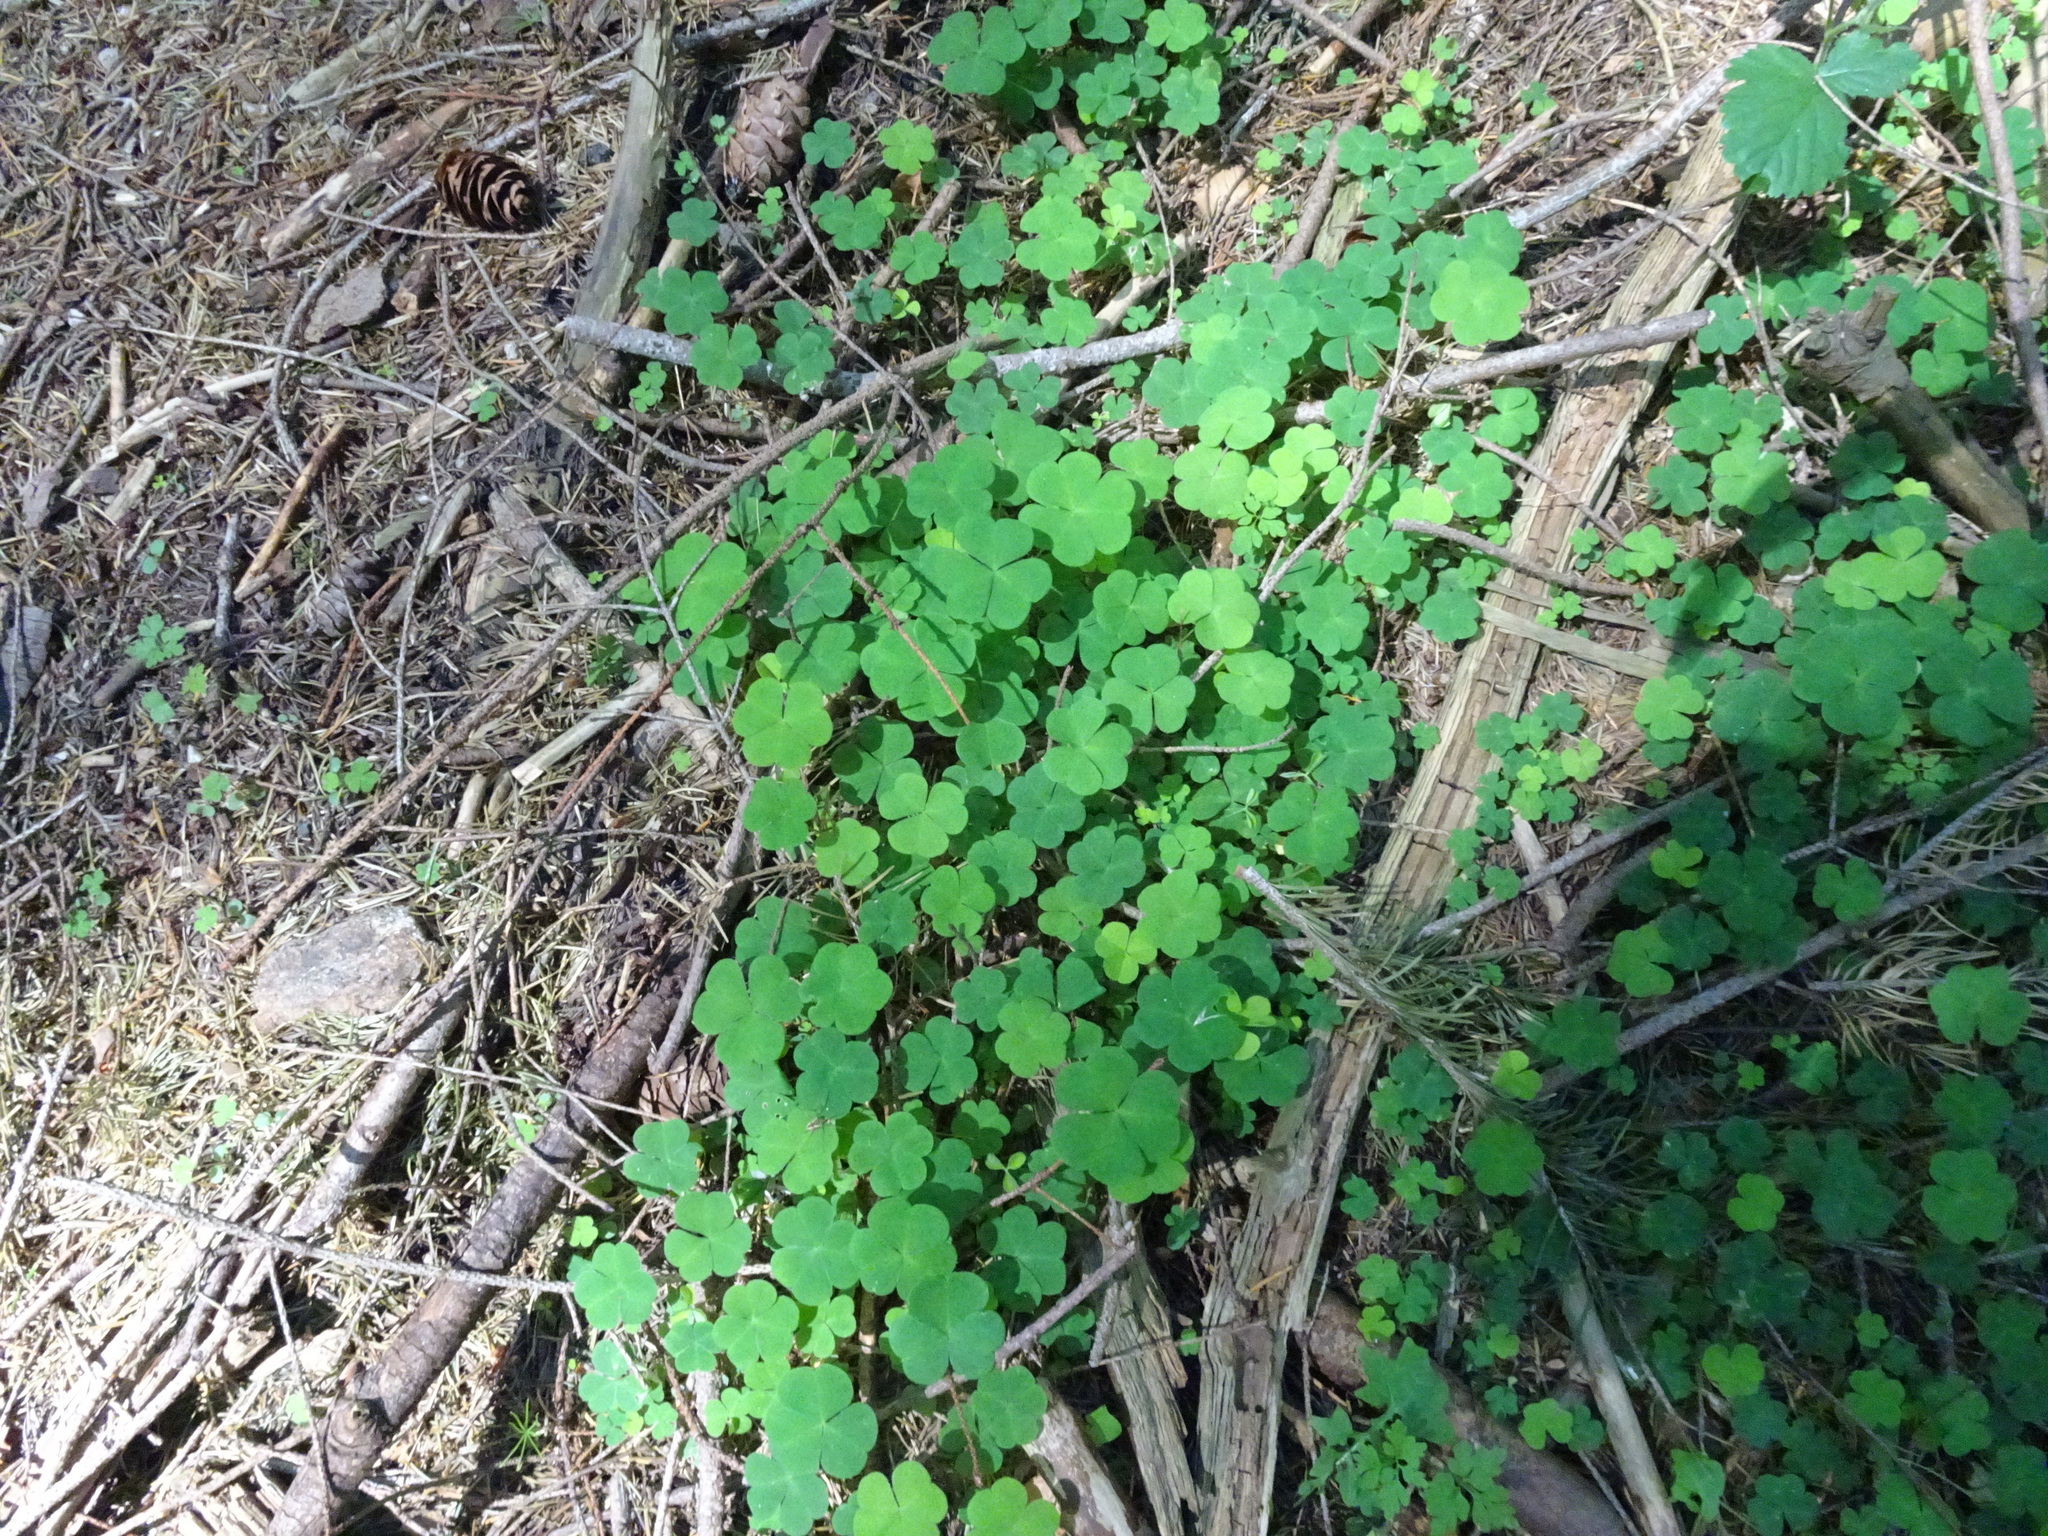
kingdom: Plantae
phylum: Tracheophyta
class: Magnoliopsida
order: Oxalidales
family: Oxalidaceae
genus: Oxalis
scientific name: Oxalis acetosella
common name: Wood-sorrel
